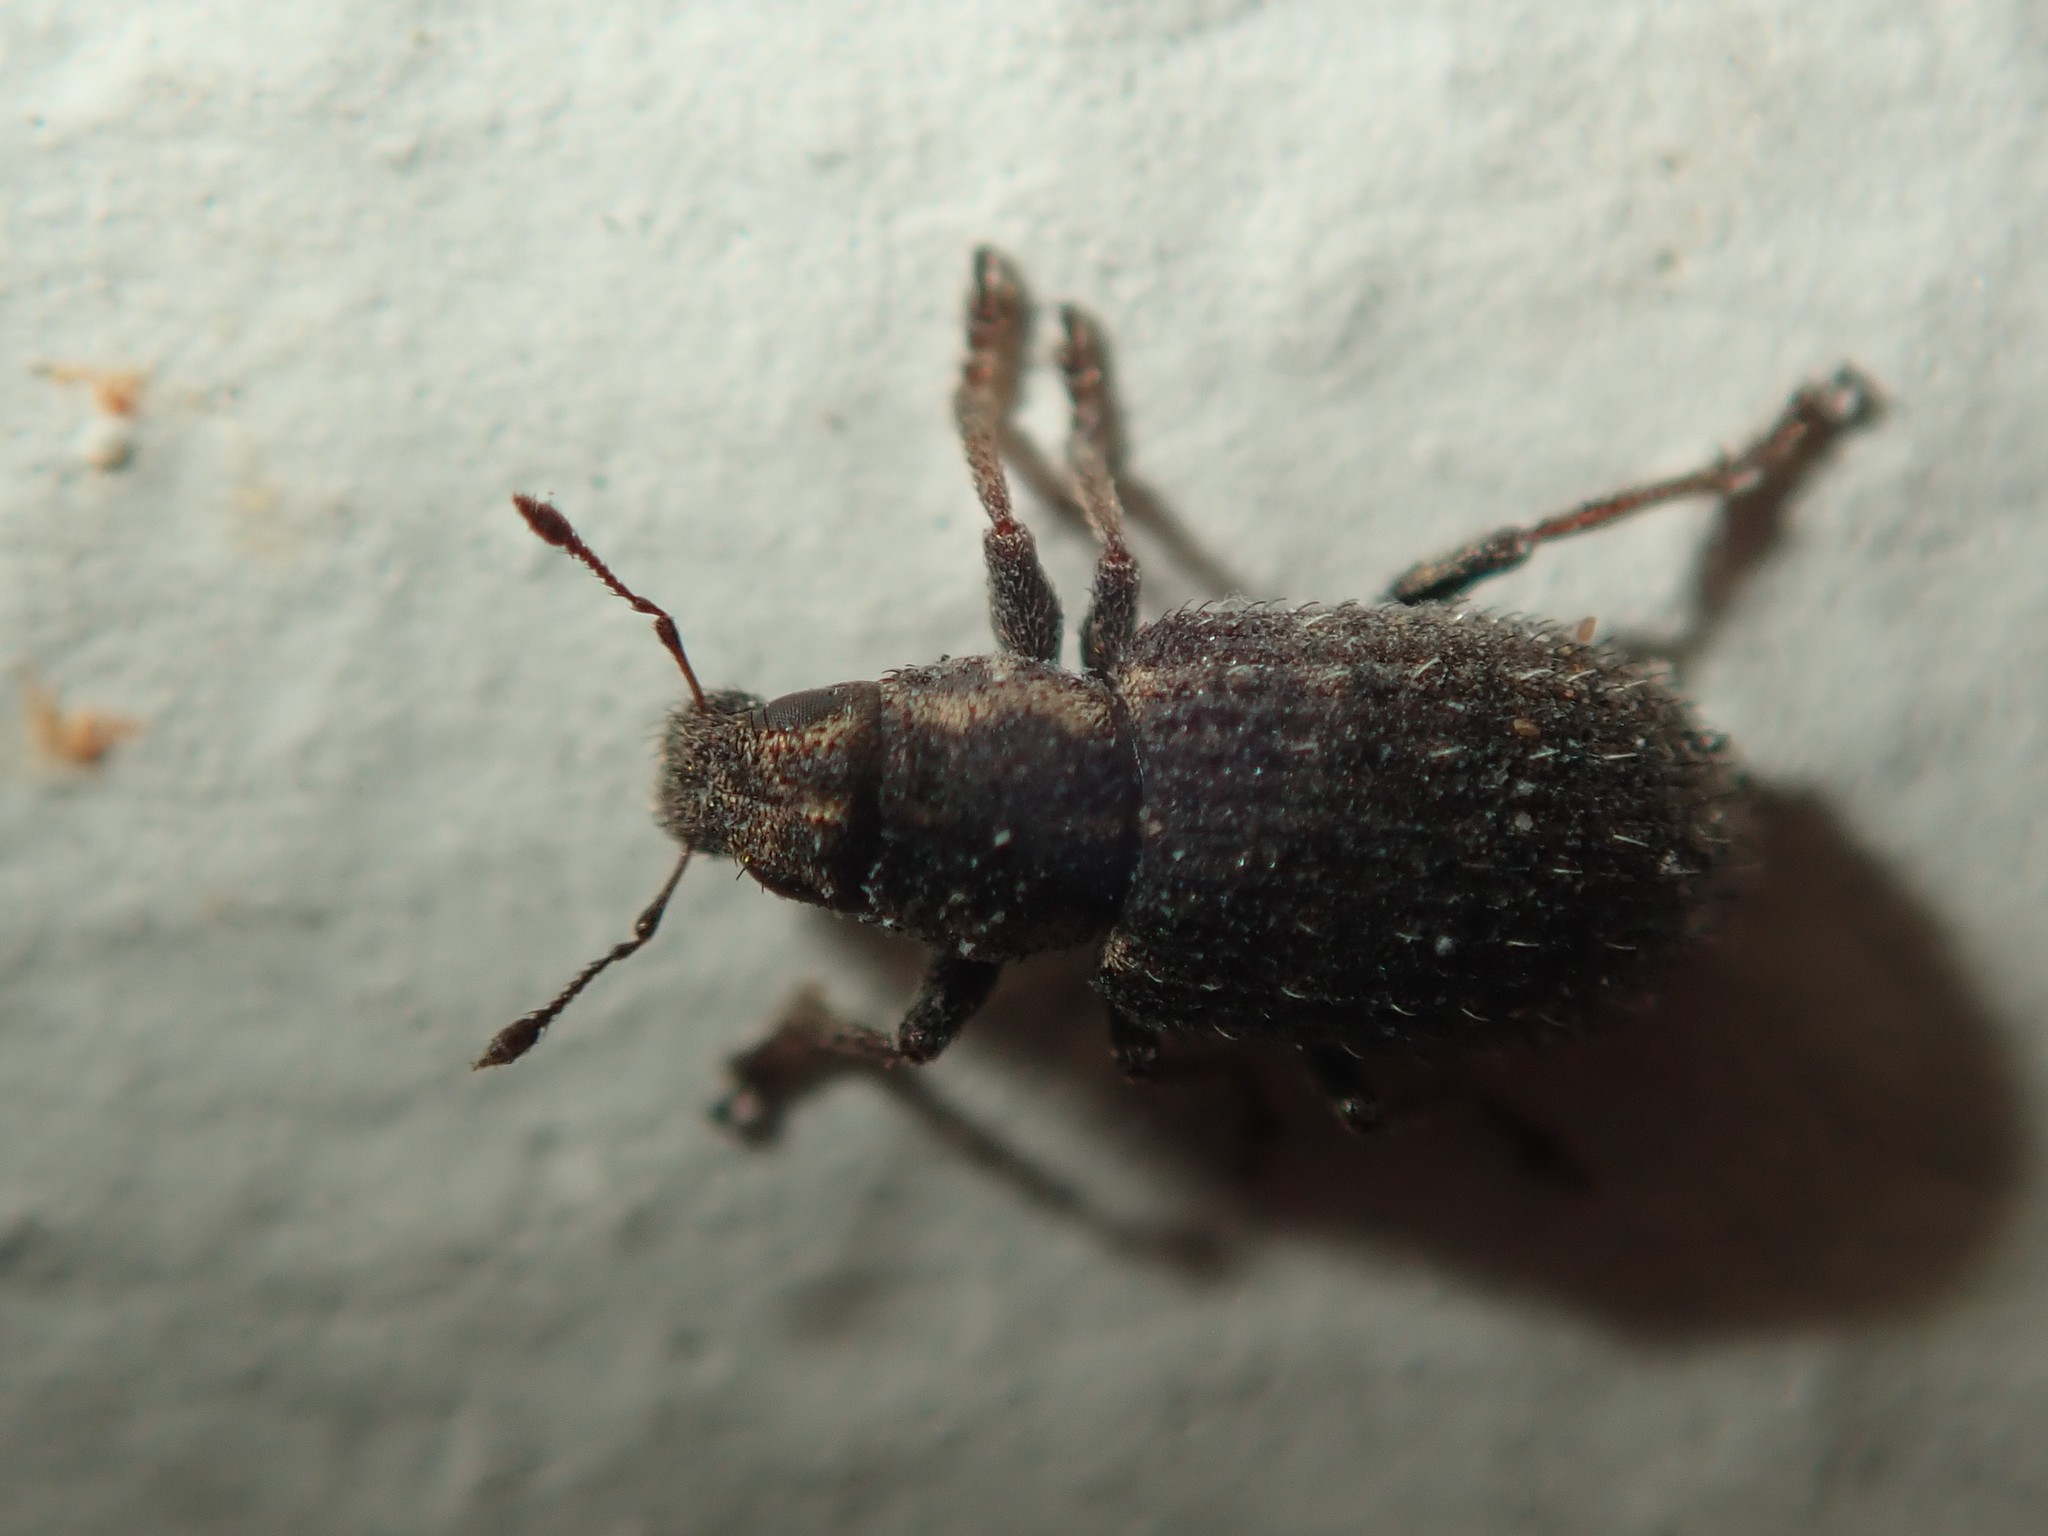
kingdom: Animalia
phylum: Arthropoda
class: Insecta
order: Coleoptera
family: Curculionidae
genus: Sitona
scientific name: Sitona hispidulus
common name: Clover weevil
